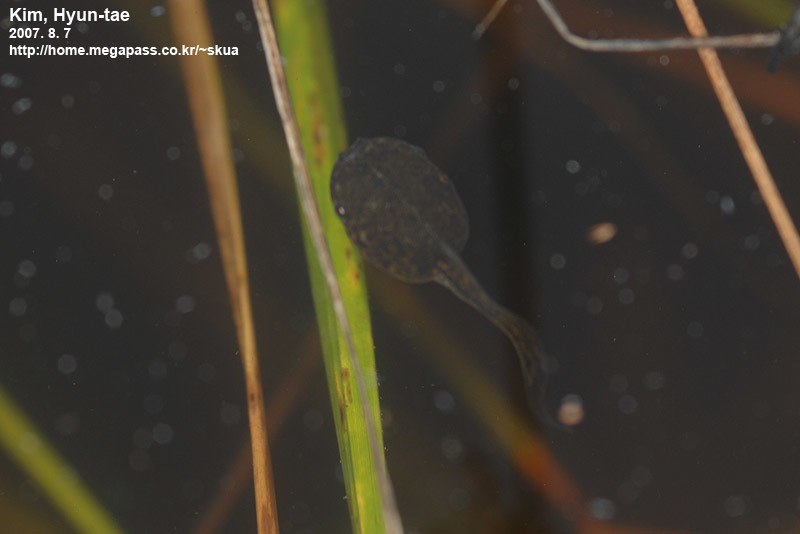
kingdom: Animalia
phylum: Chordata
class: Amphibia
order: Anura
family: Microhylidae
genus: Kaloula
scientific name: Kaloula borealis
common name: Boreal digging frog
